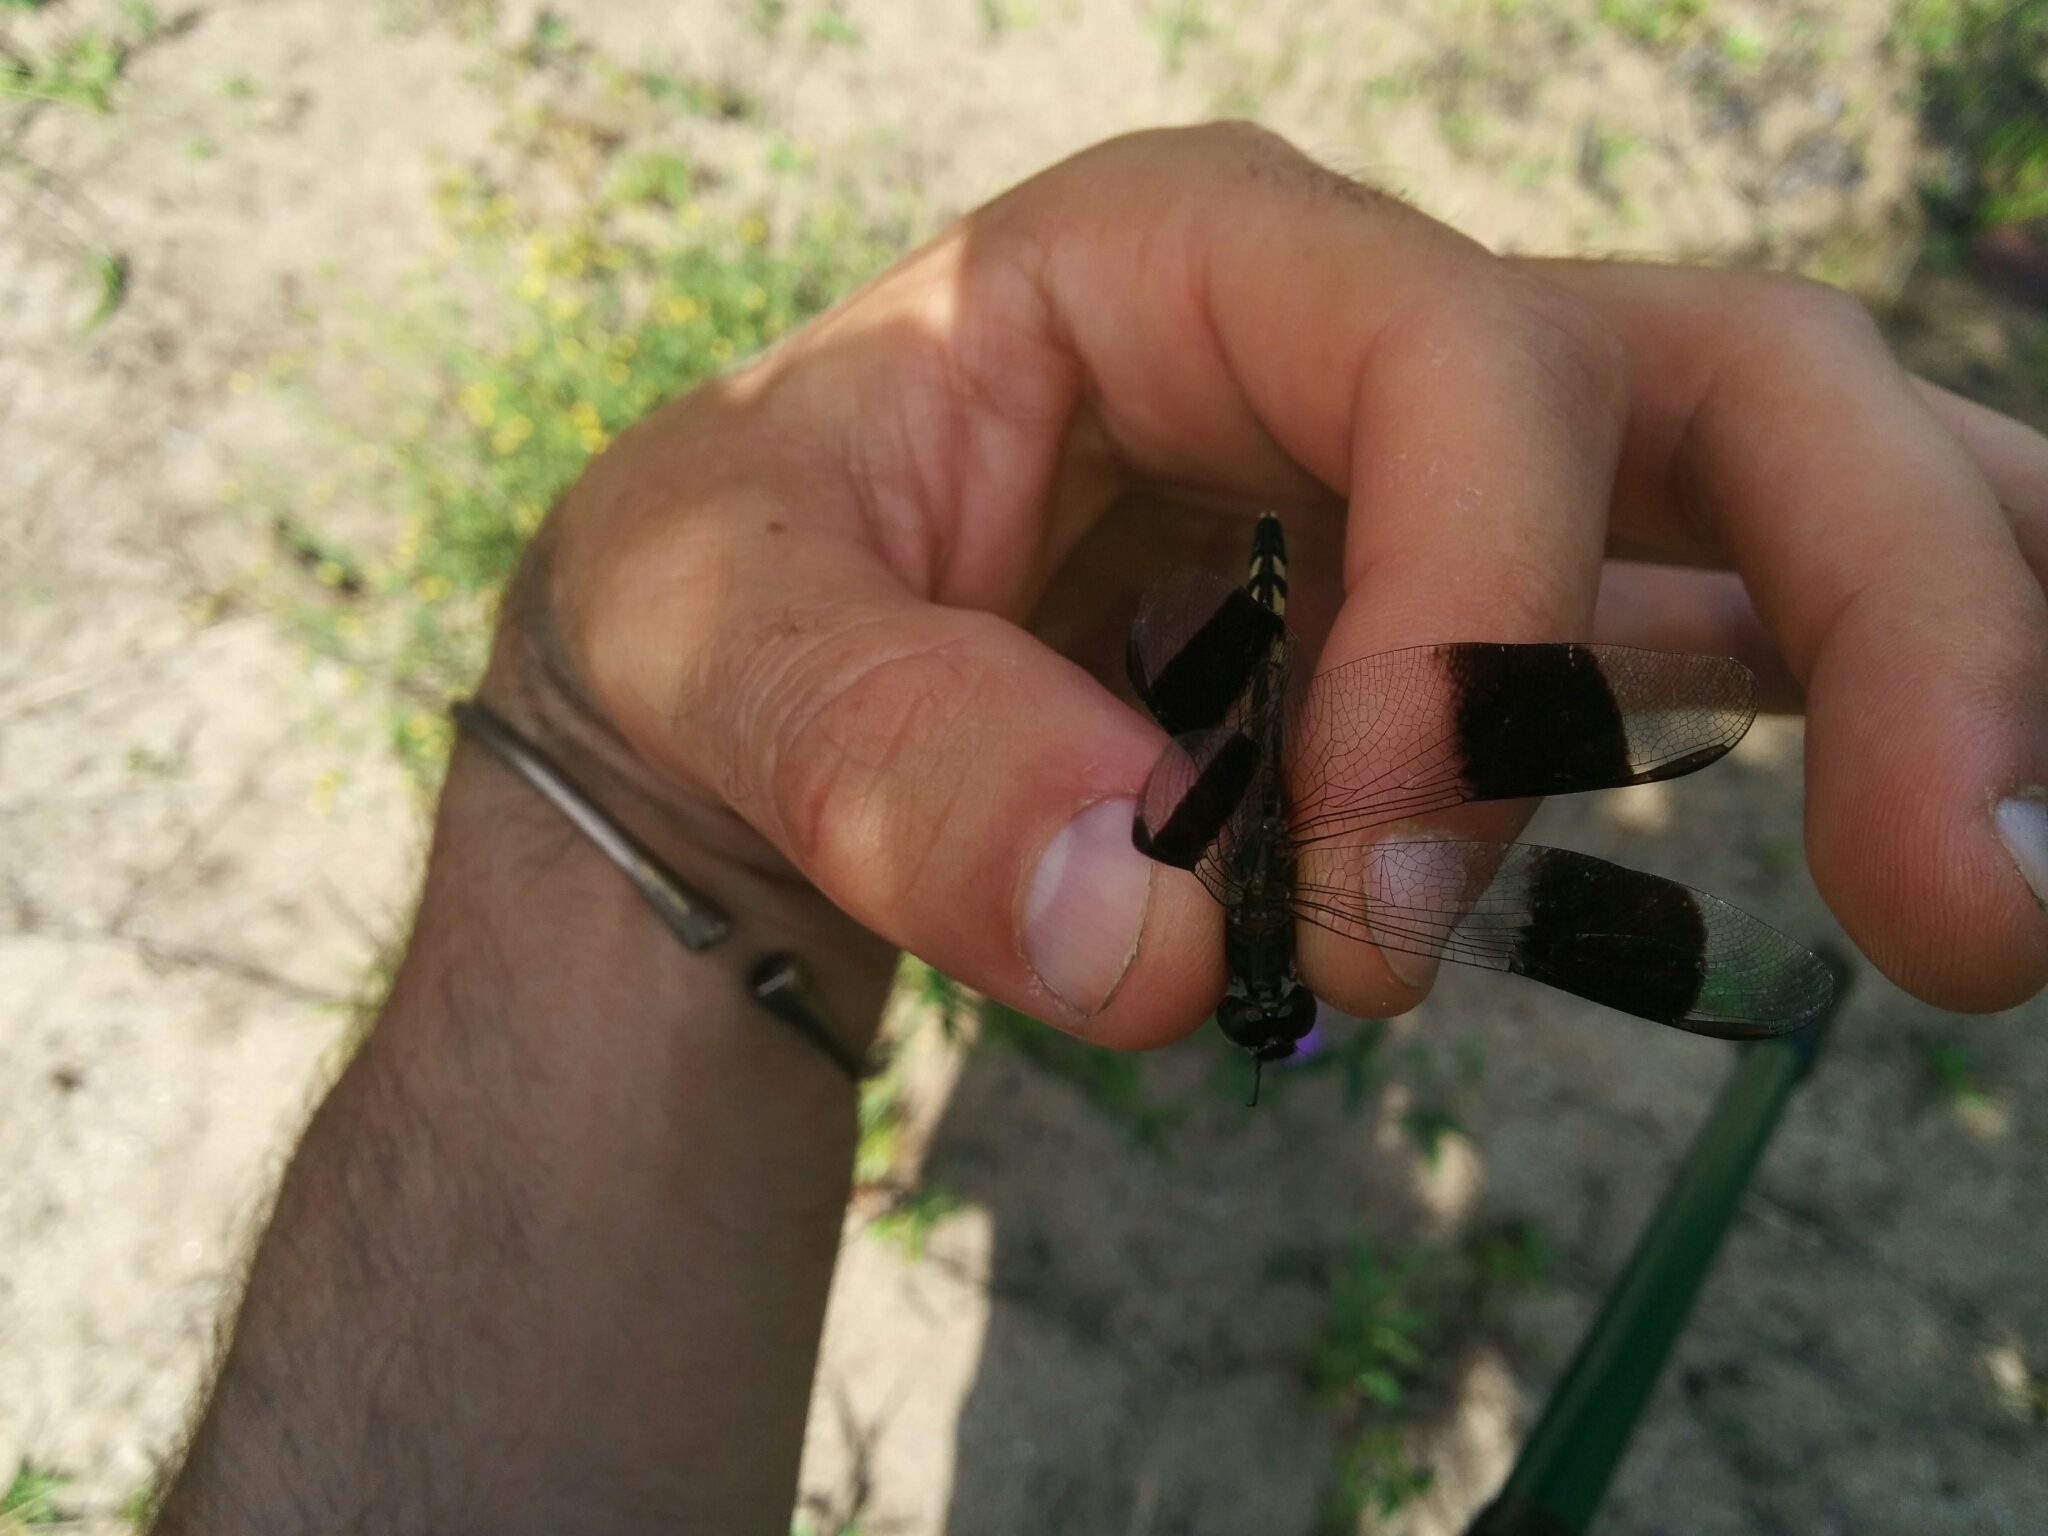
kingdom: Animalia
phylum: Arthropoda
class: Insecta
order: Odonata
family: Libellulidae
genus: Erythrodiplax
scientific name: Erythrodiplax umbrata
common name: Band-winged dragonlet
